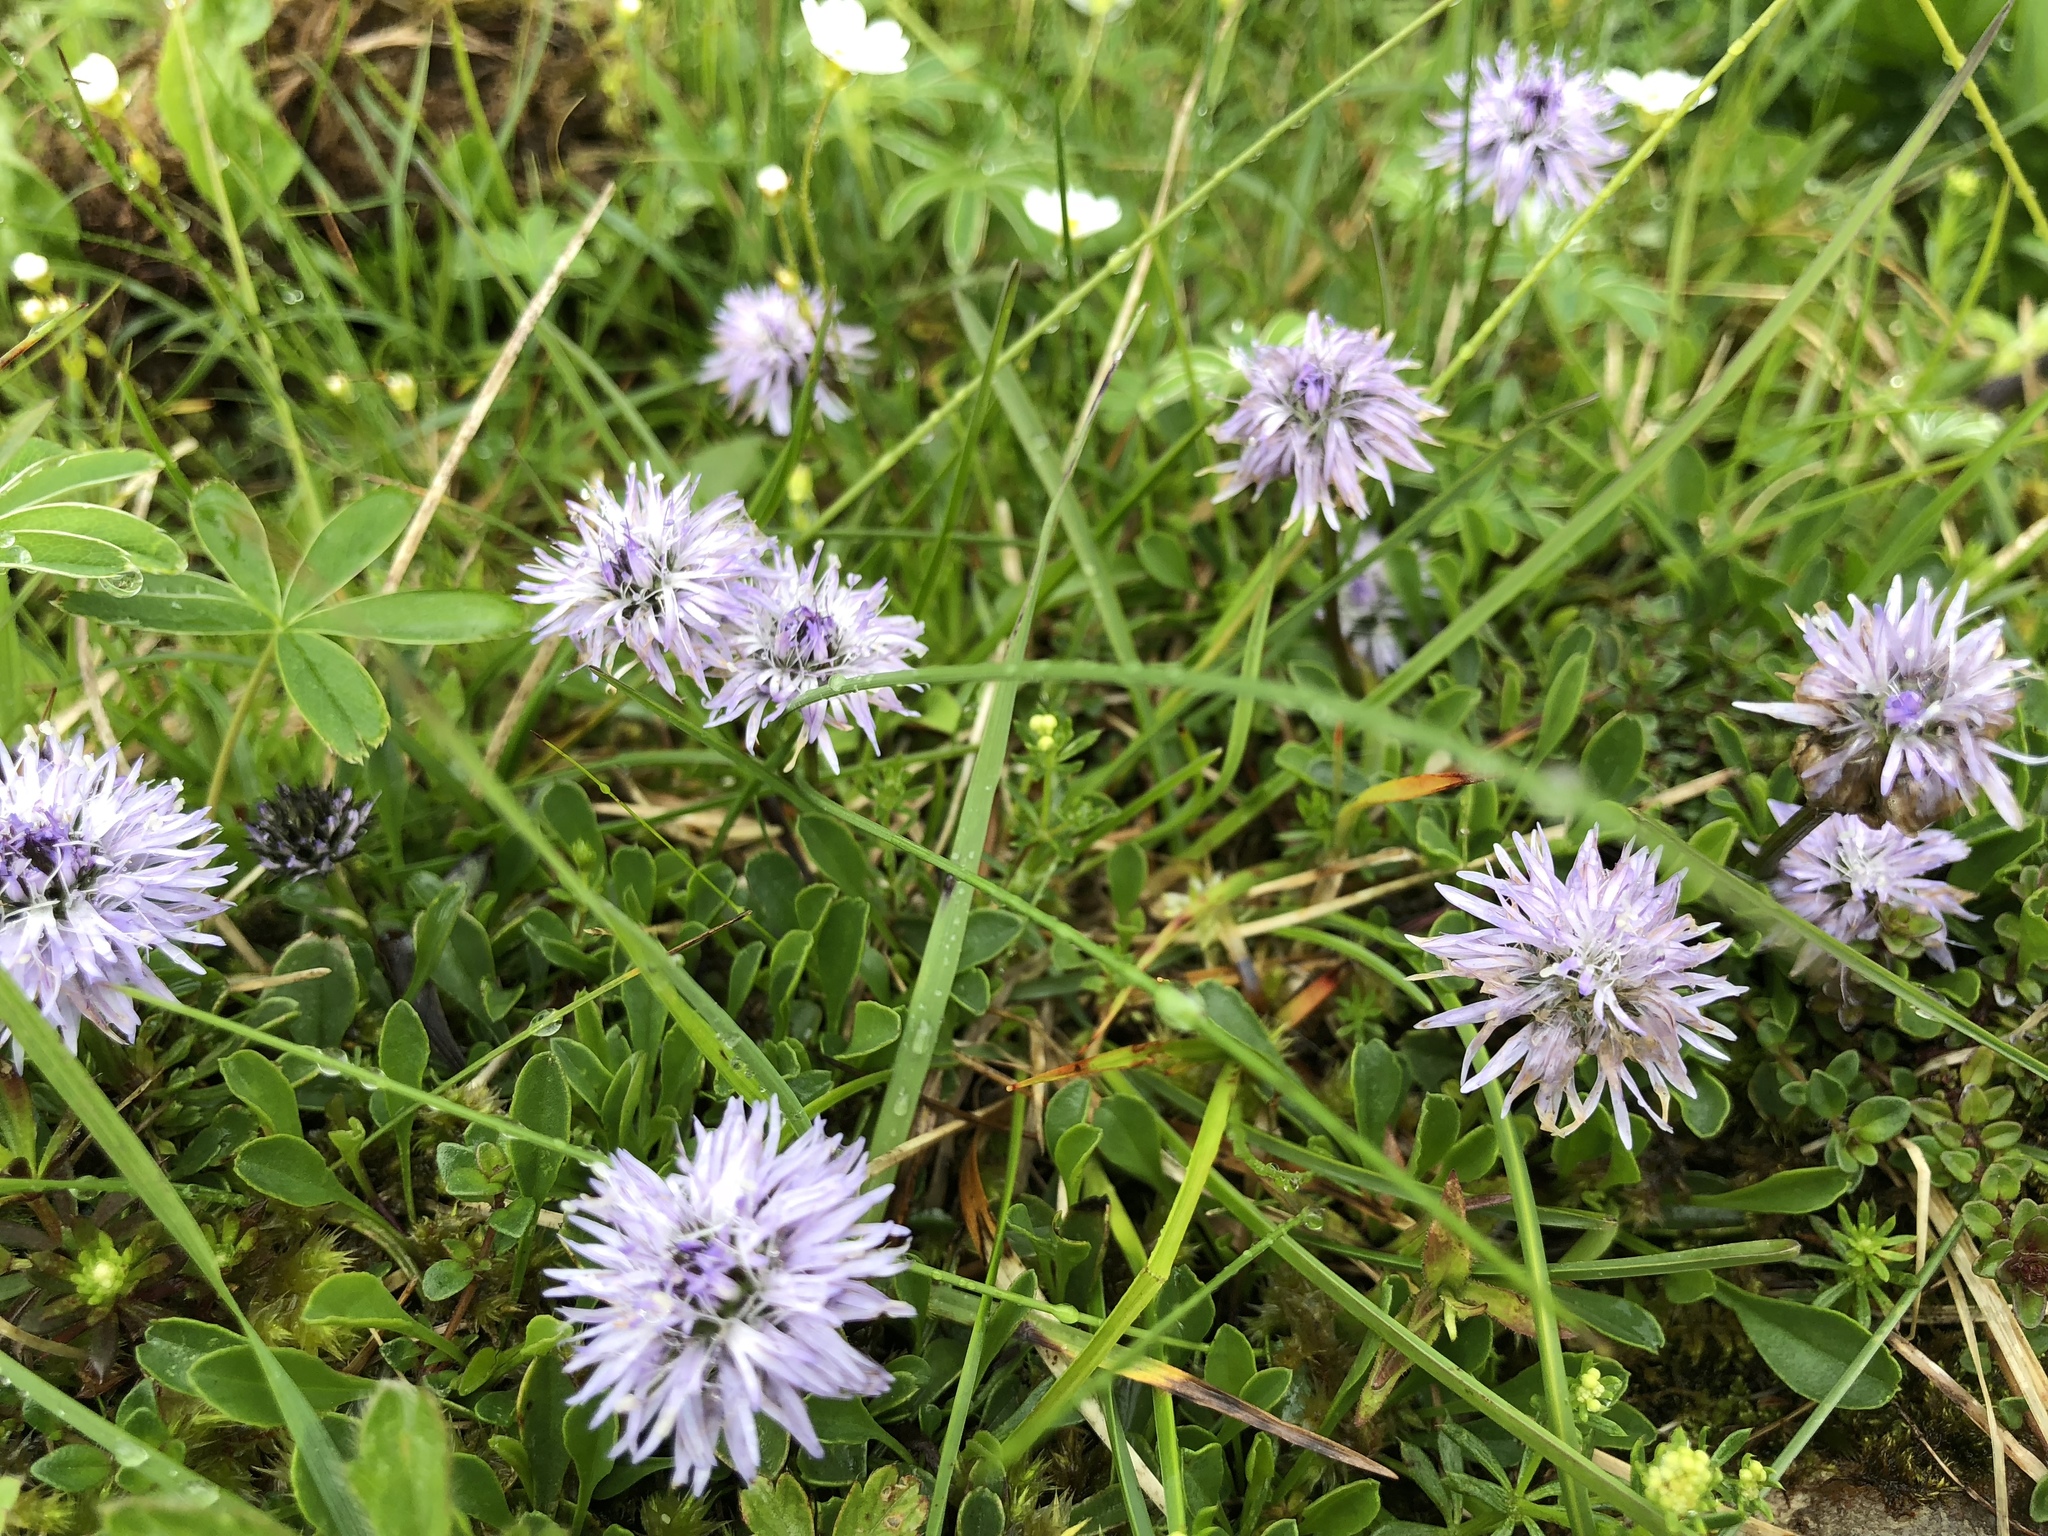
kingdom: Plantae
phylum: Tracheophyta
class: Magnoliopsida
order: Lamiales
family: Plantaginaceae
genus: Globularia
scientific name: Globularia cordifolia
